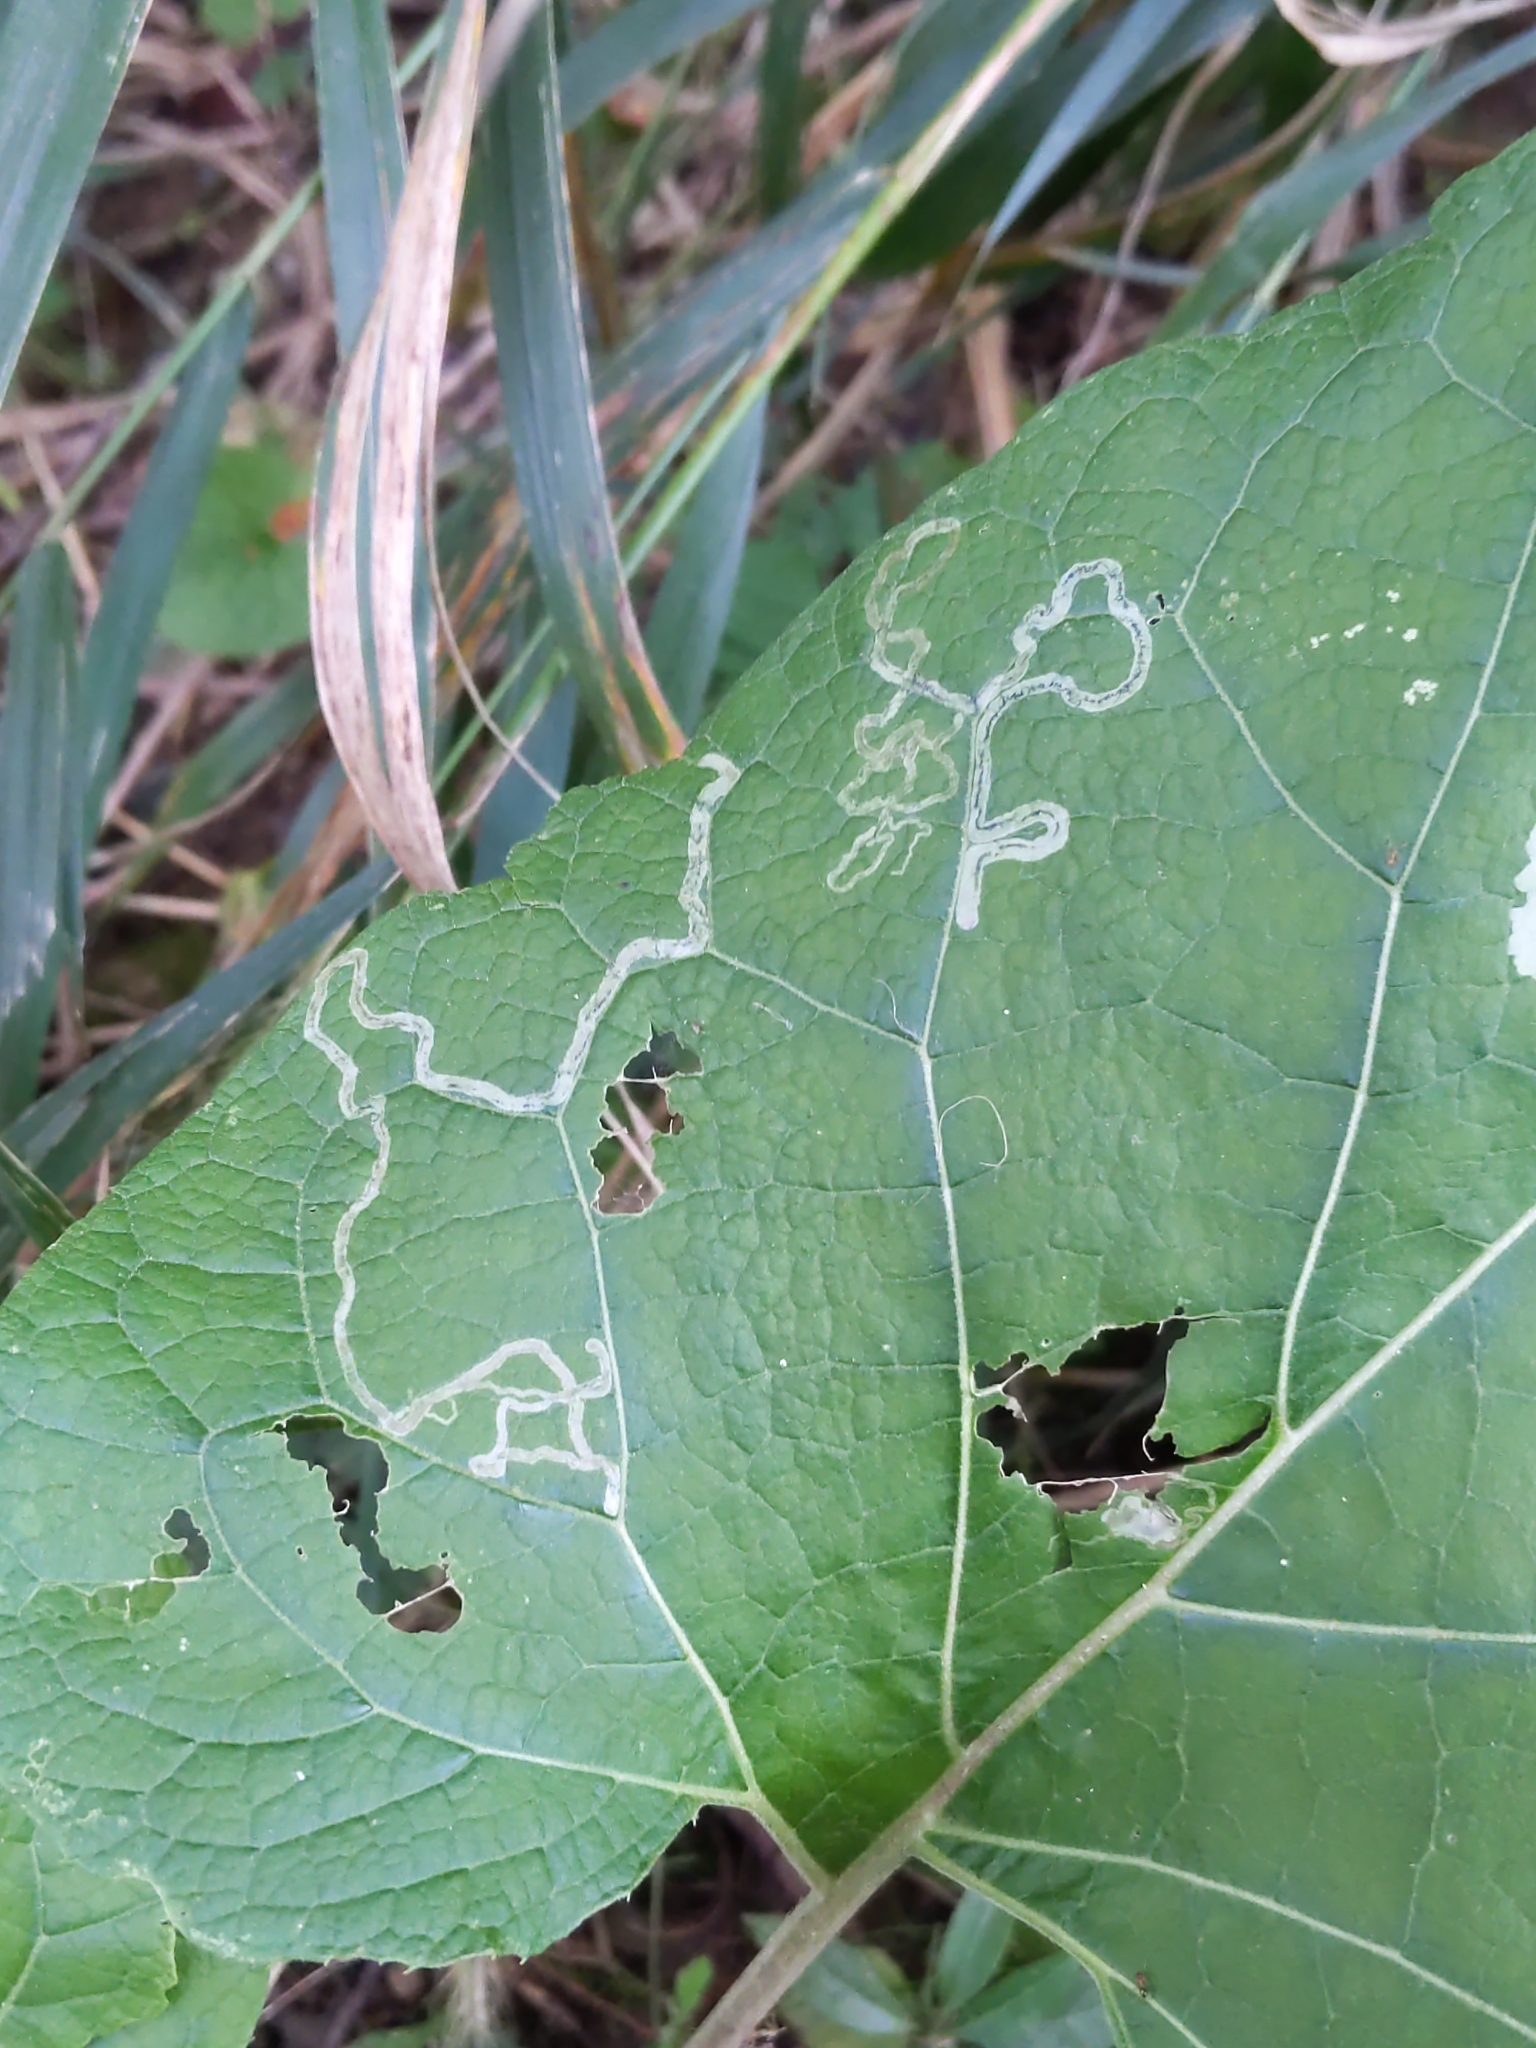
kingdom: Animalia
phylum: Arthropoda
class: Insecta
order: Diptera
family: Agromyzidae
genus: Liriomyza
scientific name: Liriomyza arctii
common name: Burdock leafminer
